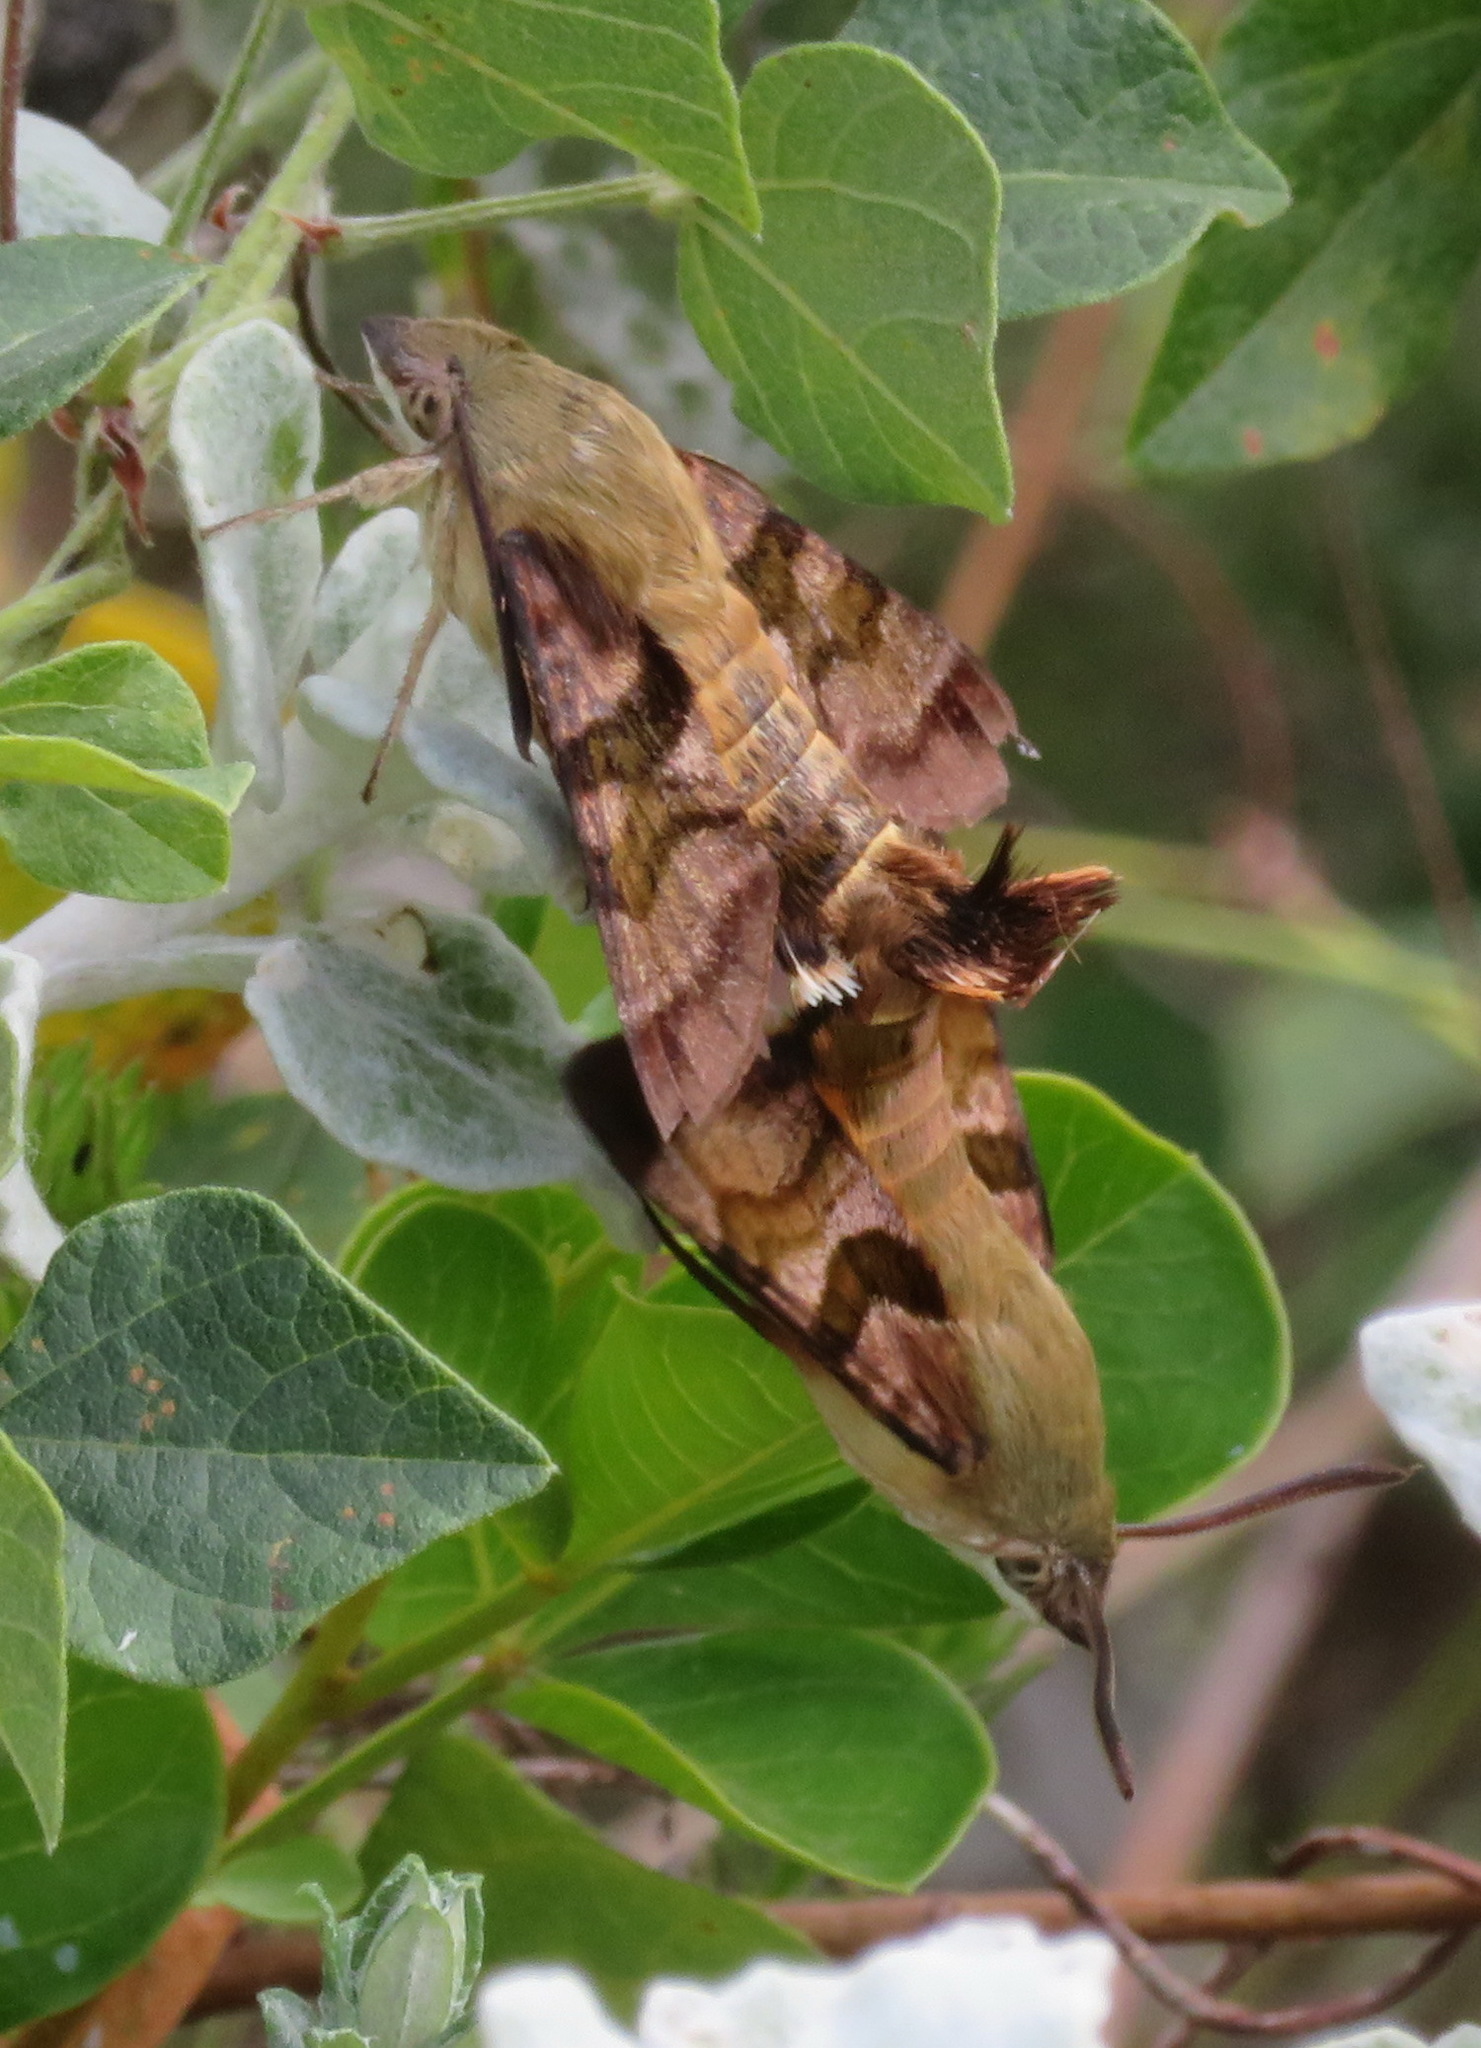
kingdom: Animalia
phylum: Arthropoda
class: Insecta
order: Lepidoptera
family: Sphingidae
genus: Macroglossum
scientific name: Macroglossum trochilus
